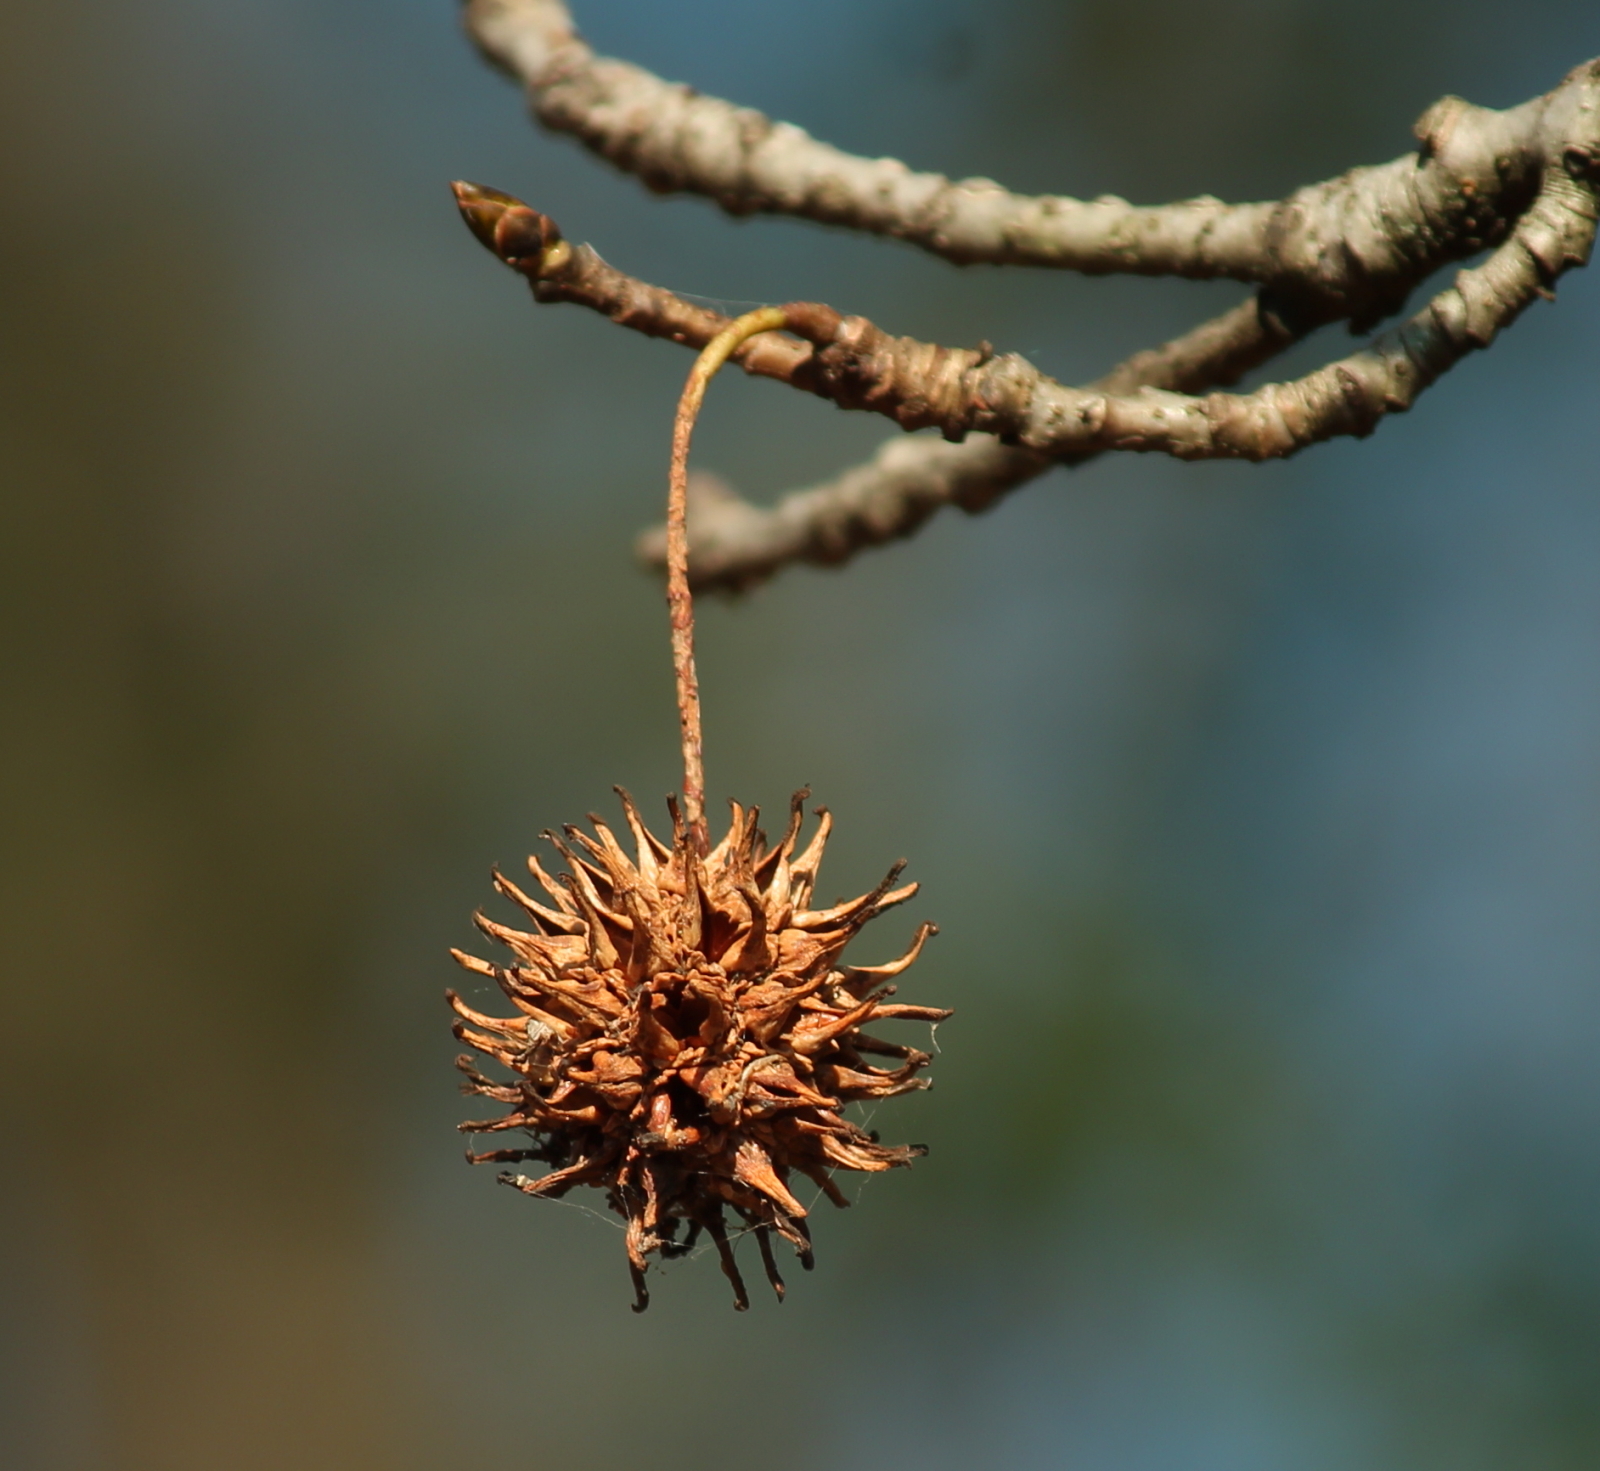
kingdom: Plantae
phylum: Tracheophyta
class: Magnoliopsida
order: Saxifragales
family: Altingiaceae
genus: Liquidambar
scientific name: Liquidambar styraciflua
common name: Sweet gum
